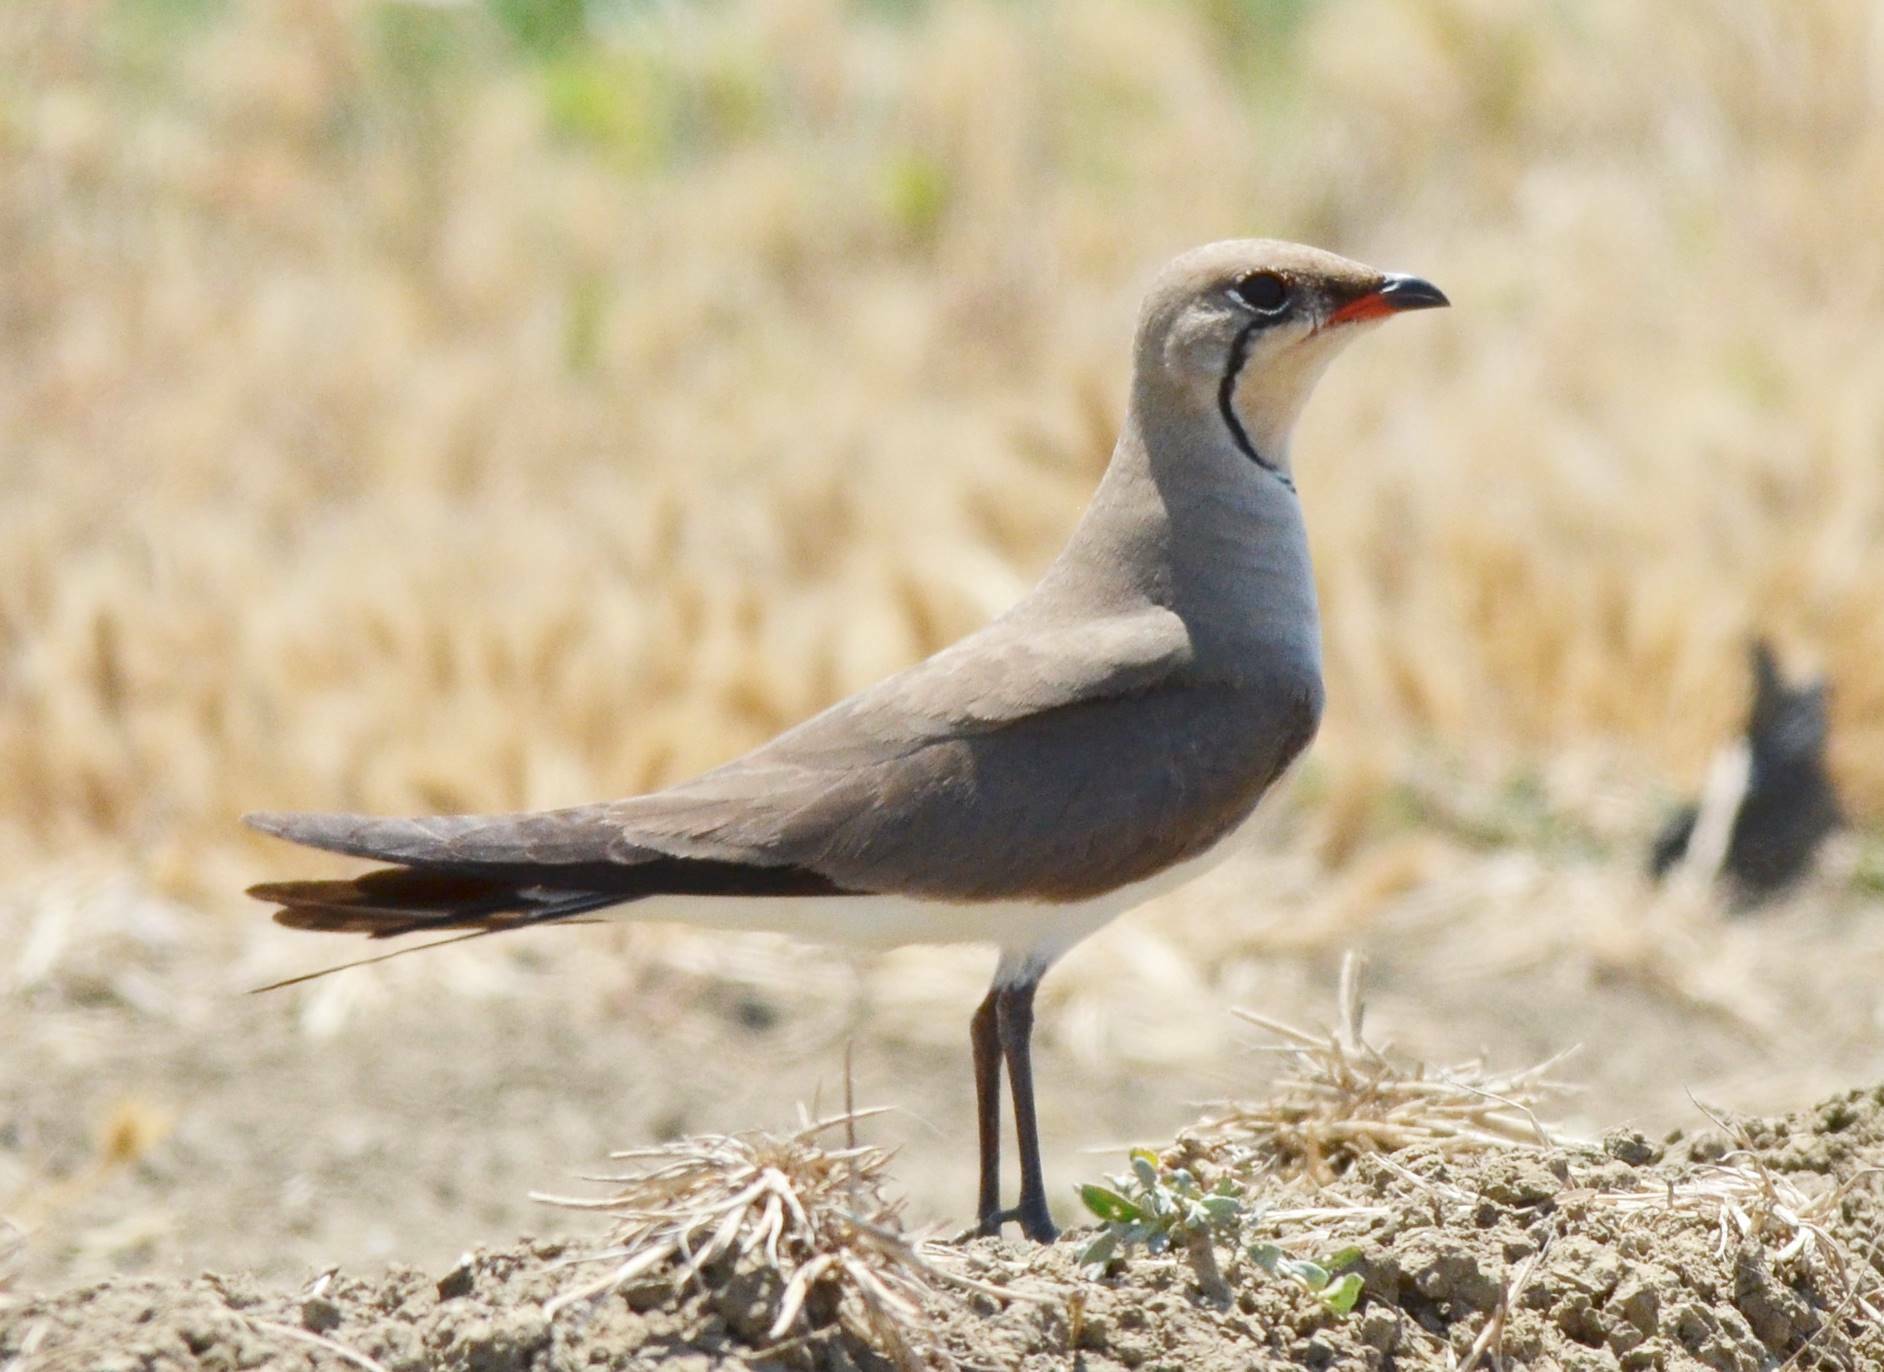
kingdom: Animalia
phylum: Chordata
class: Aves
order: Charadriiformes
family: Glareolidae
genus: Glareola
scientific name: Glareola pratincola
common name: Collared pratincole
